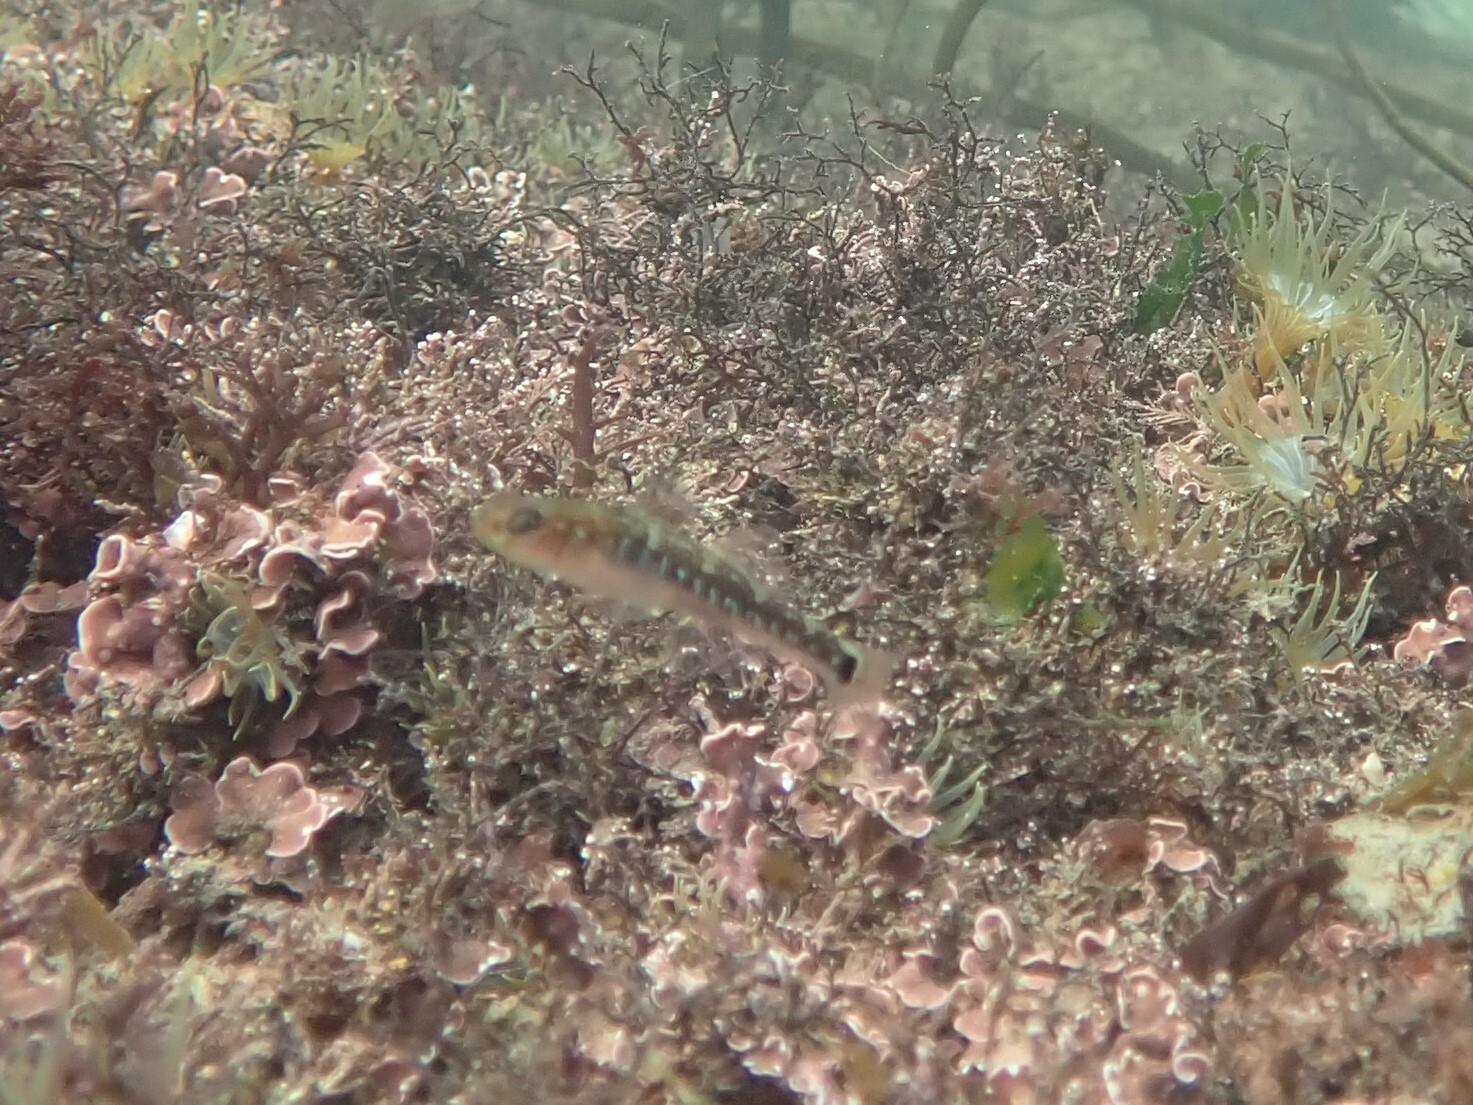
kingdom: Animalia
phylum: Chordata
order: Perciformes
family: Gobiidae
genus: Gobiusculus
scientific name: Gobiusculus flavescens
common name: Two-spotted goby
